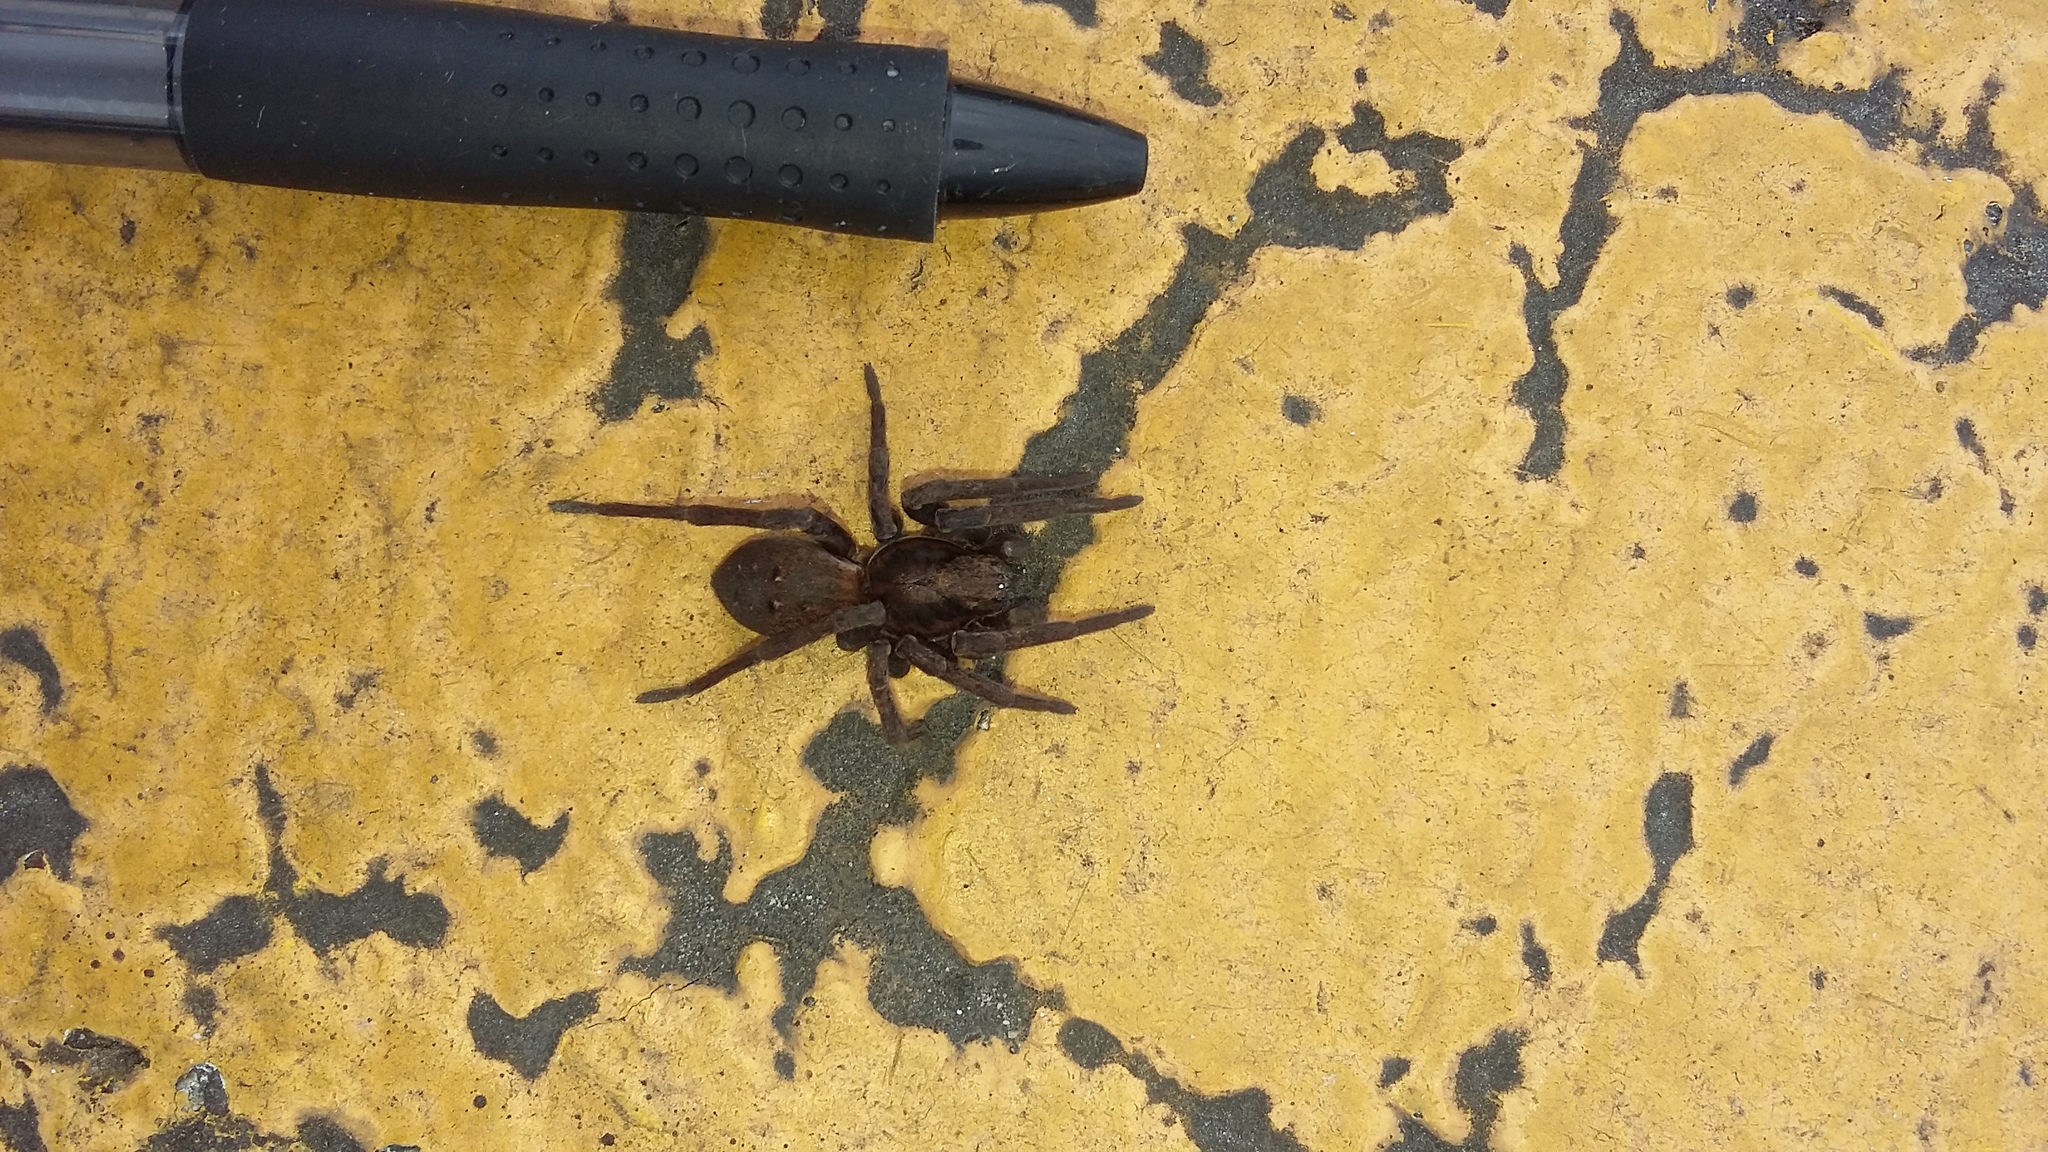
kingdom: Animalia
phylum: Arthropoda
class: Arachnida
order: Araneae
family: Zoropsidae
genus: Uliodon
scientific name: Uliodon albopunctatus
